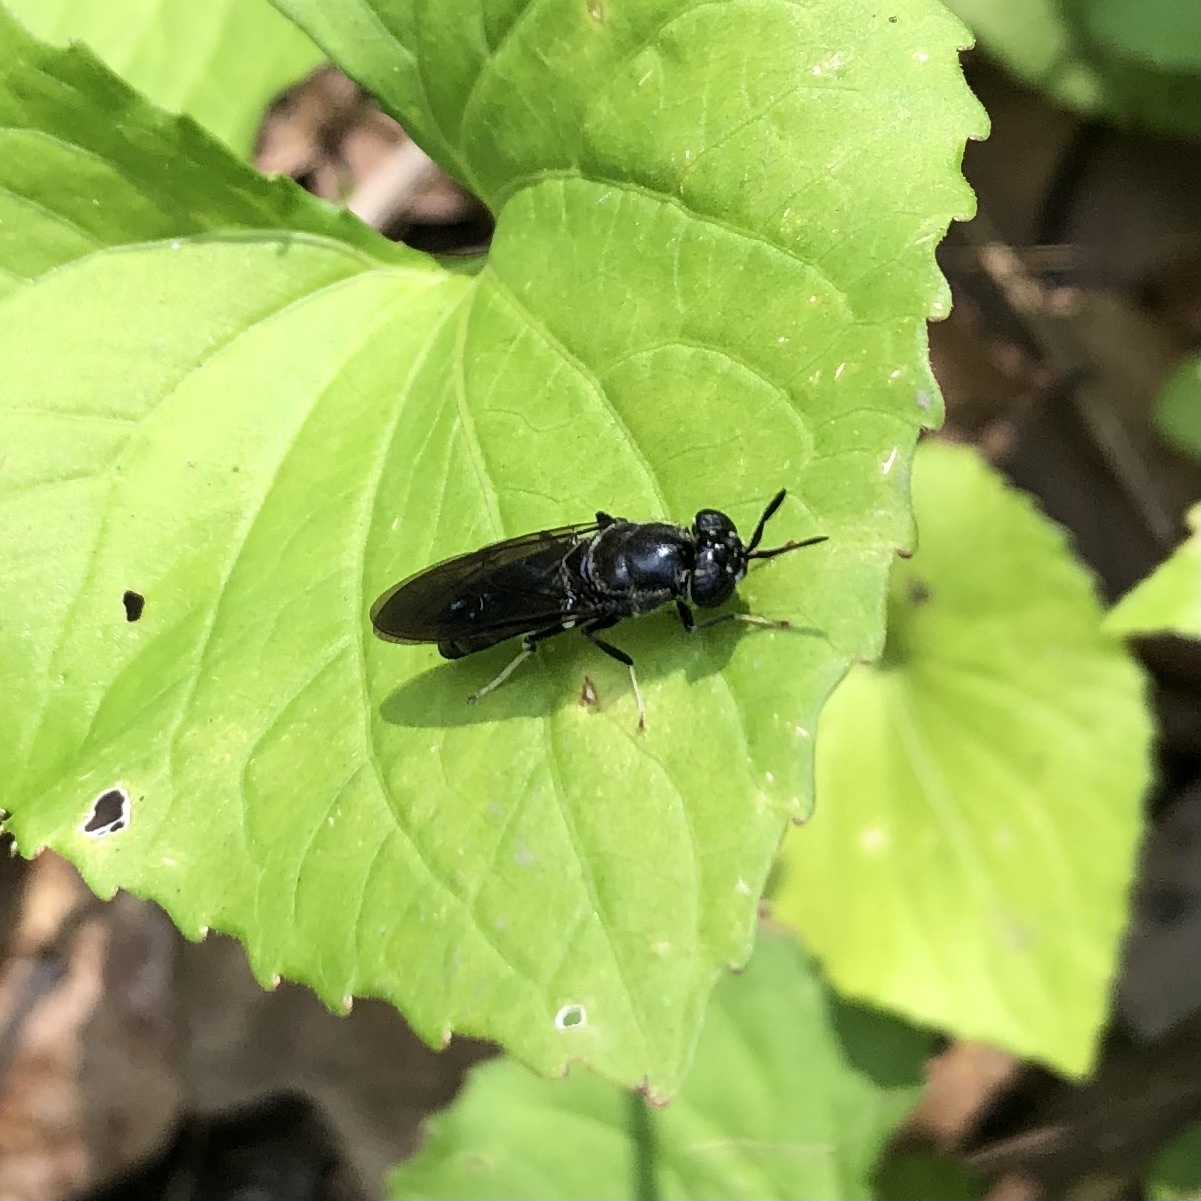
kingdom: Animalia
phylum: Arthropoda
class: Insecta
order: Diptera
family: Stratiomyidae
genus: Hermetia
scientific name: Hermetia illucens
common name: Black soldier fly
